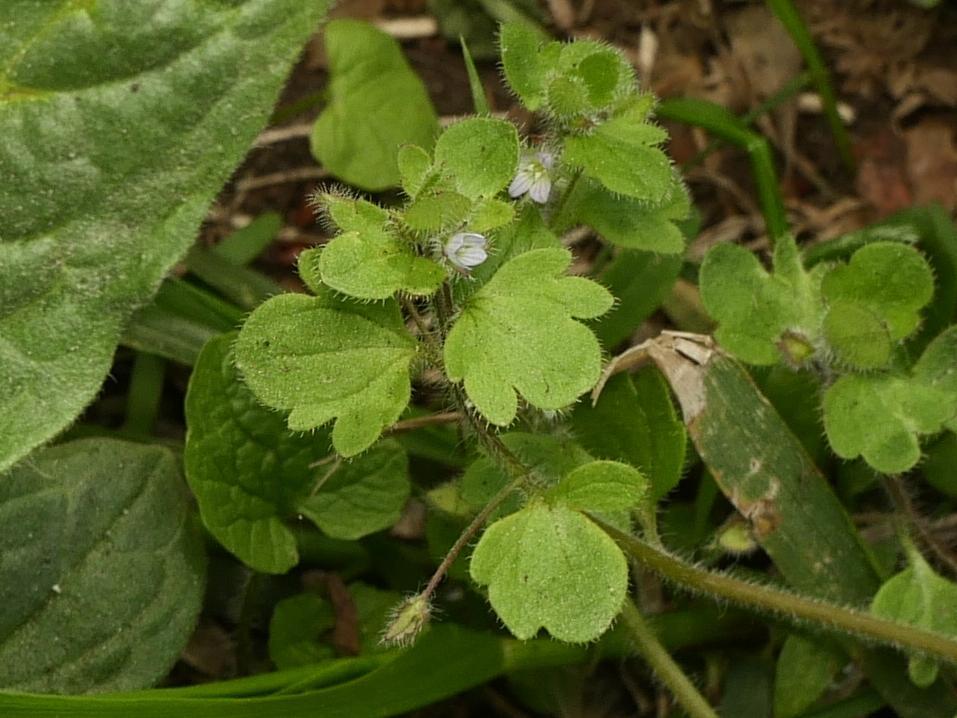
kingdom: Plantae
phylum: Tracheophyta
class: Magnoliopsida
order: Lamiales
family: Plantaginaceae
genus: Veronica
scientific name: Veronica sublobata
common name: False ivy-leaved speedwell
